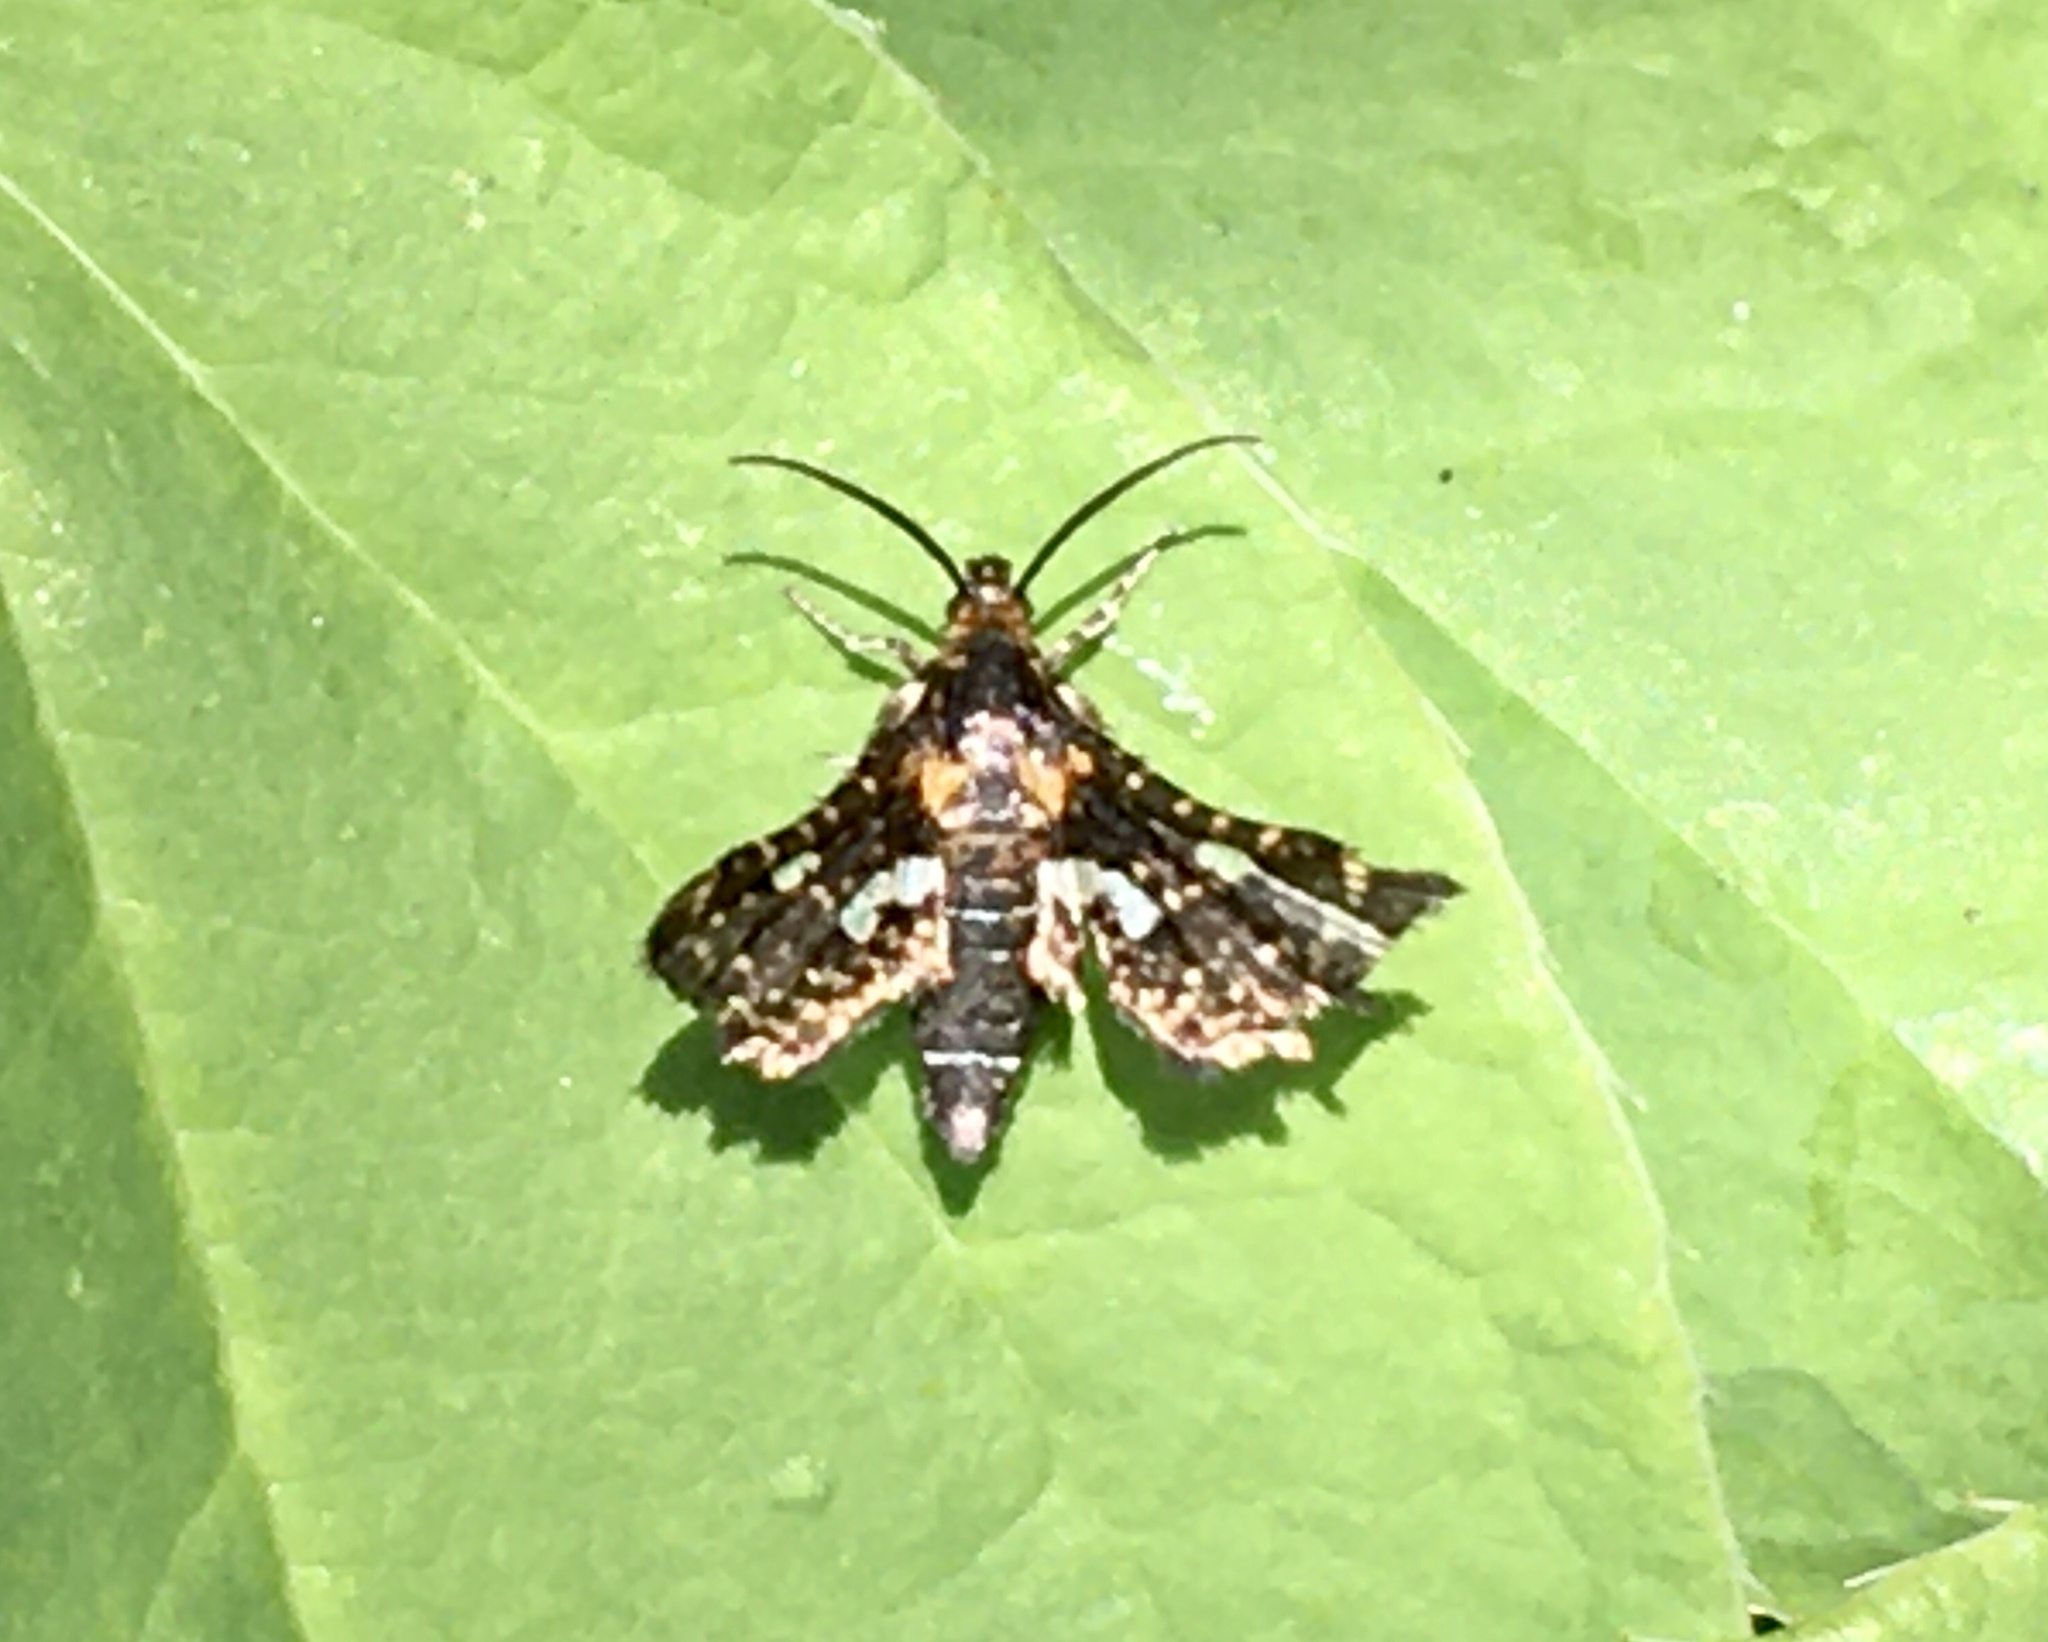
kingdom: Animalia
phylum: Arthropoda
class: Insecta
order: Lepidoptera
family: Thyrididae
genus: Thyris
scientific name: Thyris maculata
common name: Spotted thyris moth
